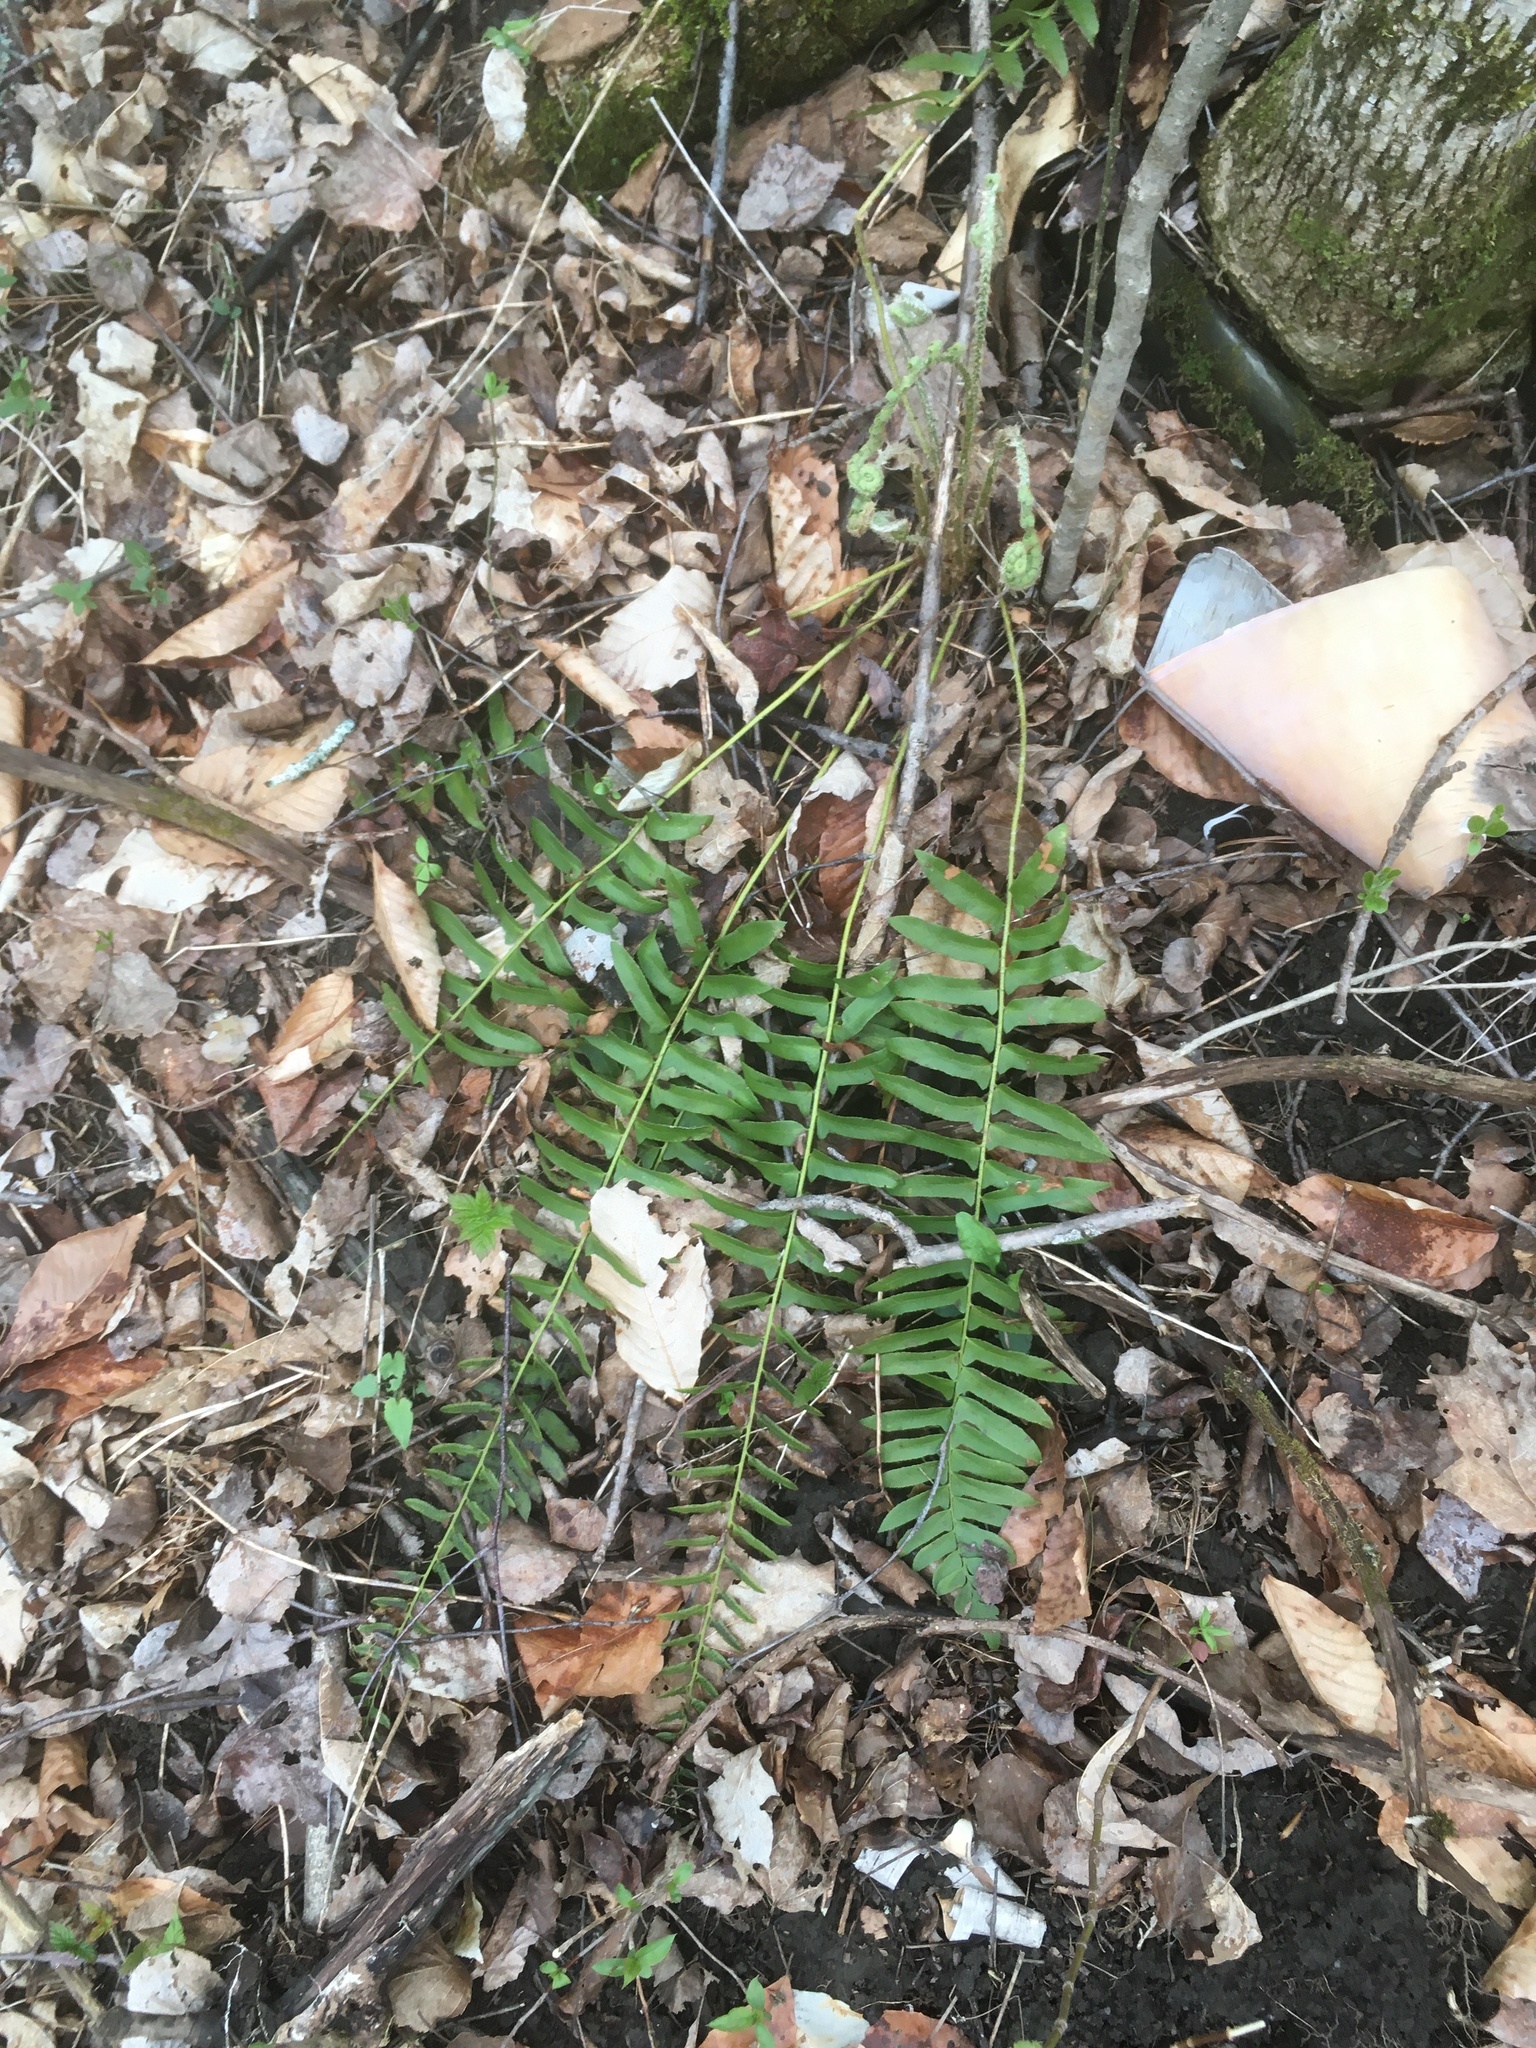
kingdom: Plantae
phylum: Tracheophyta
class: Polypodiopsida
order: Polypodiales
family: Dryopteridaceae
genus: Polystichum
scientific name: Polystichum acrostichoides
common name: Christmas fern
